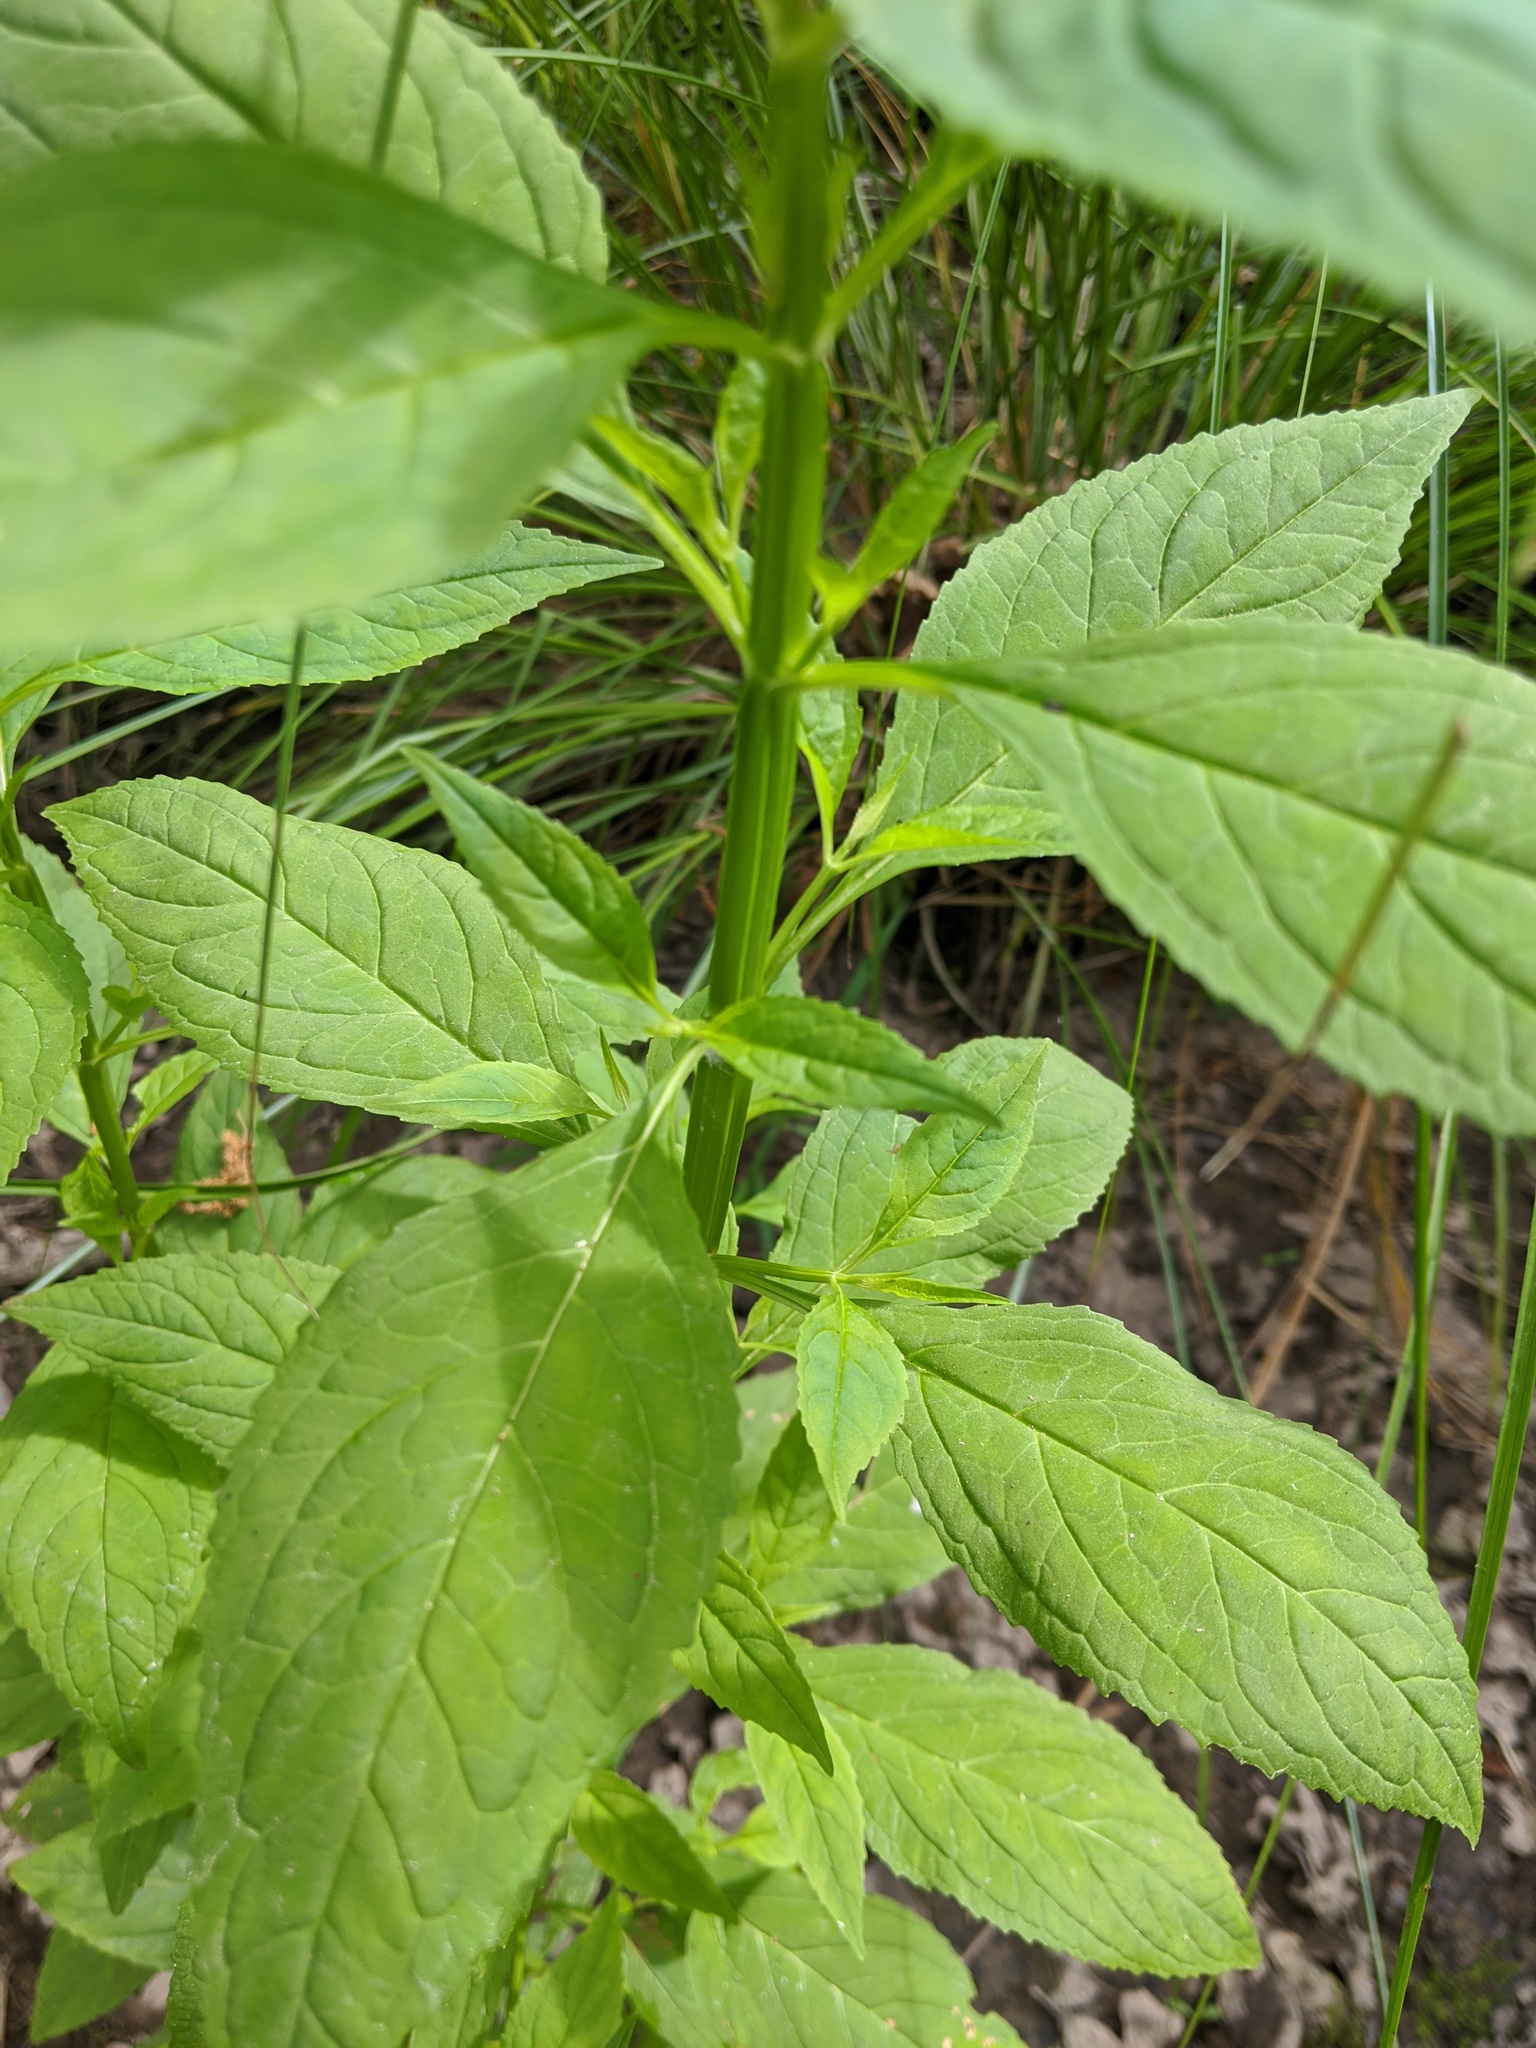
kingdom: Plantae
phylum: Tracheophyta
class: Magnoliopsida
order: Lamiales
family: Phrymaceae
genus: Mimulus
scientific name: Mimulus alatus
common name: Sharp-wing monkey-flower
